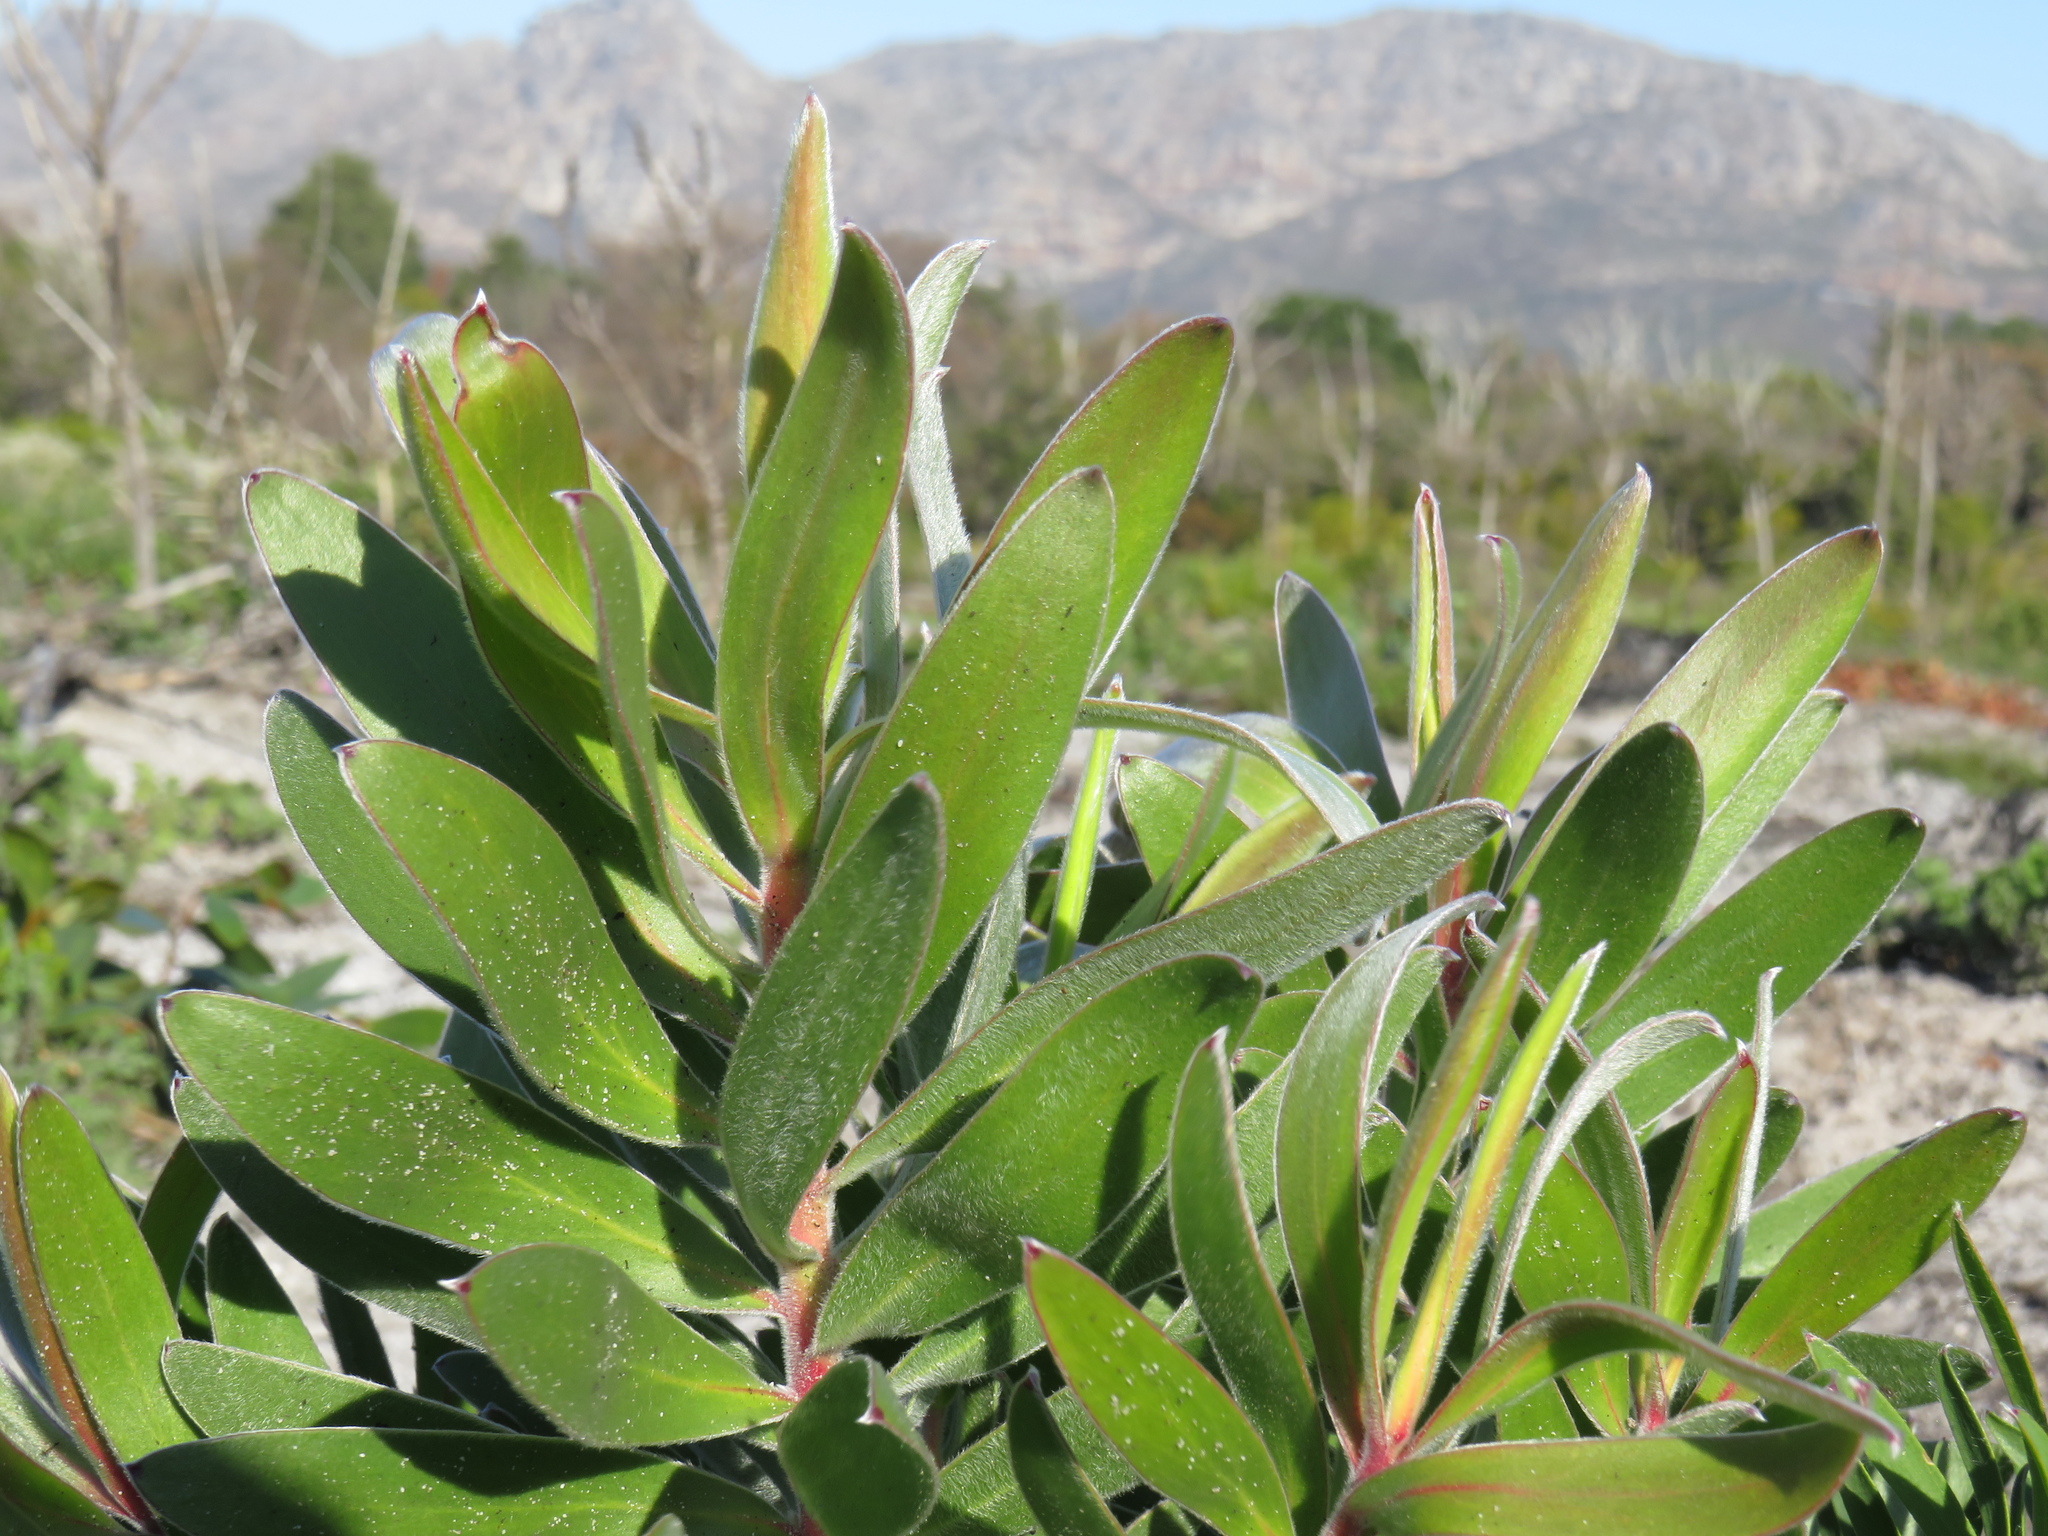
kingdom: Plantae
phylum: Tracheophyta
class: Magnoliopsida
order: Proteales
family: Proteaceae
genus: Leucadendron
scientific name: Leucadendron laureolum
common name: Golden sunshinebush
